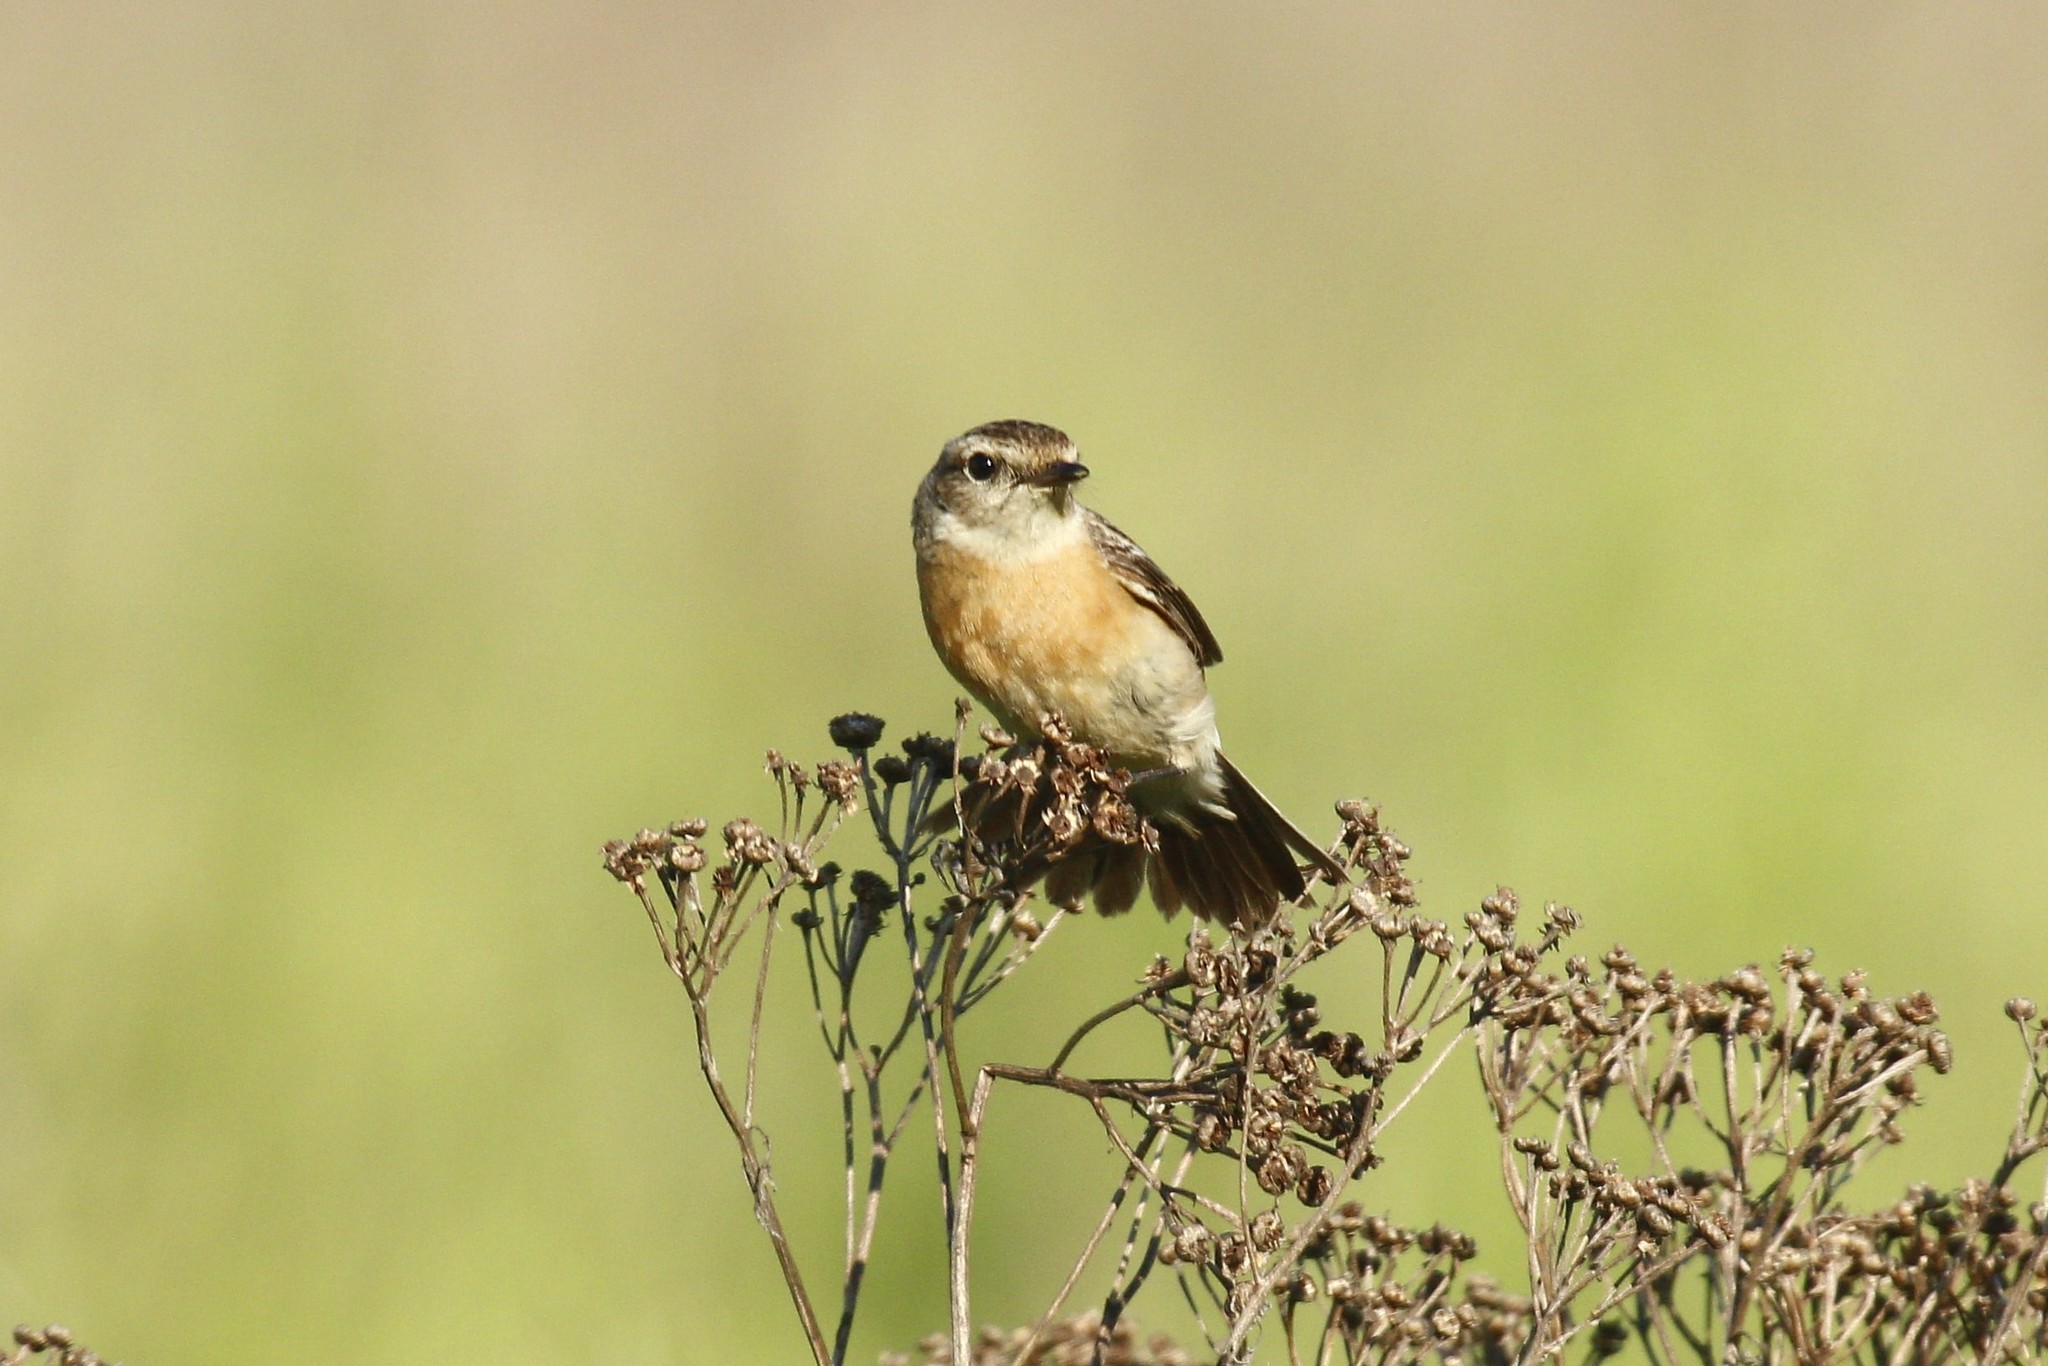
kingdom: Animalia
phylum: Chordata
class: Aves
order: Passeriformes
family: Muscicapidae
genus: Saxicola
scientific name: Saxicola maurus
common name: Siberian stonechat
